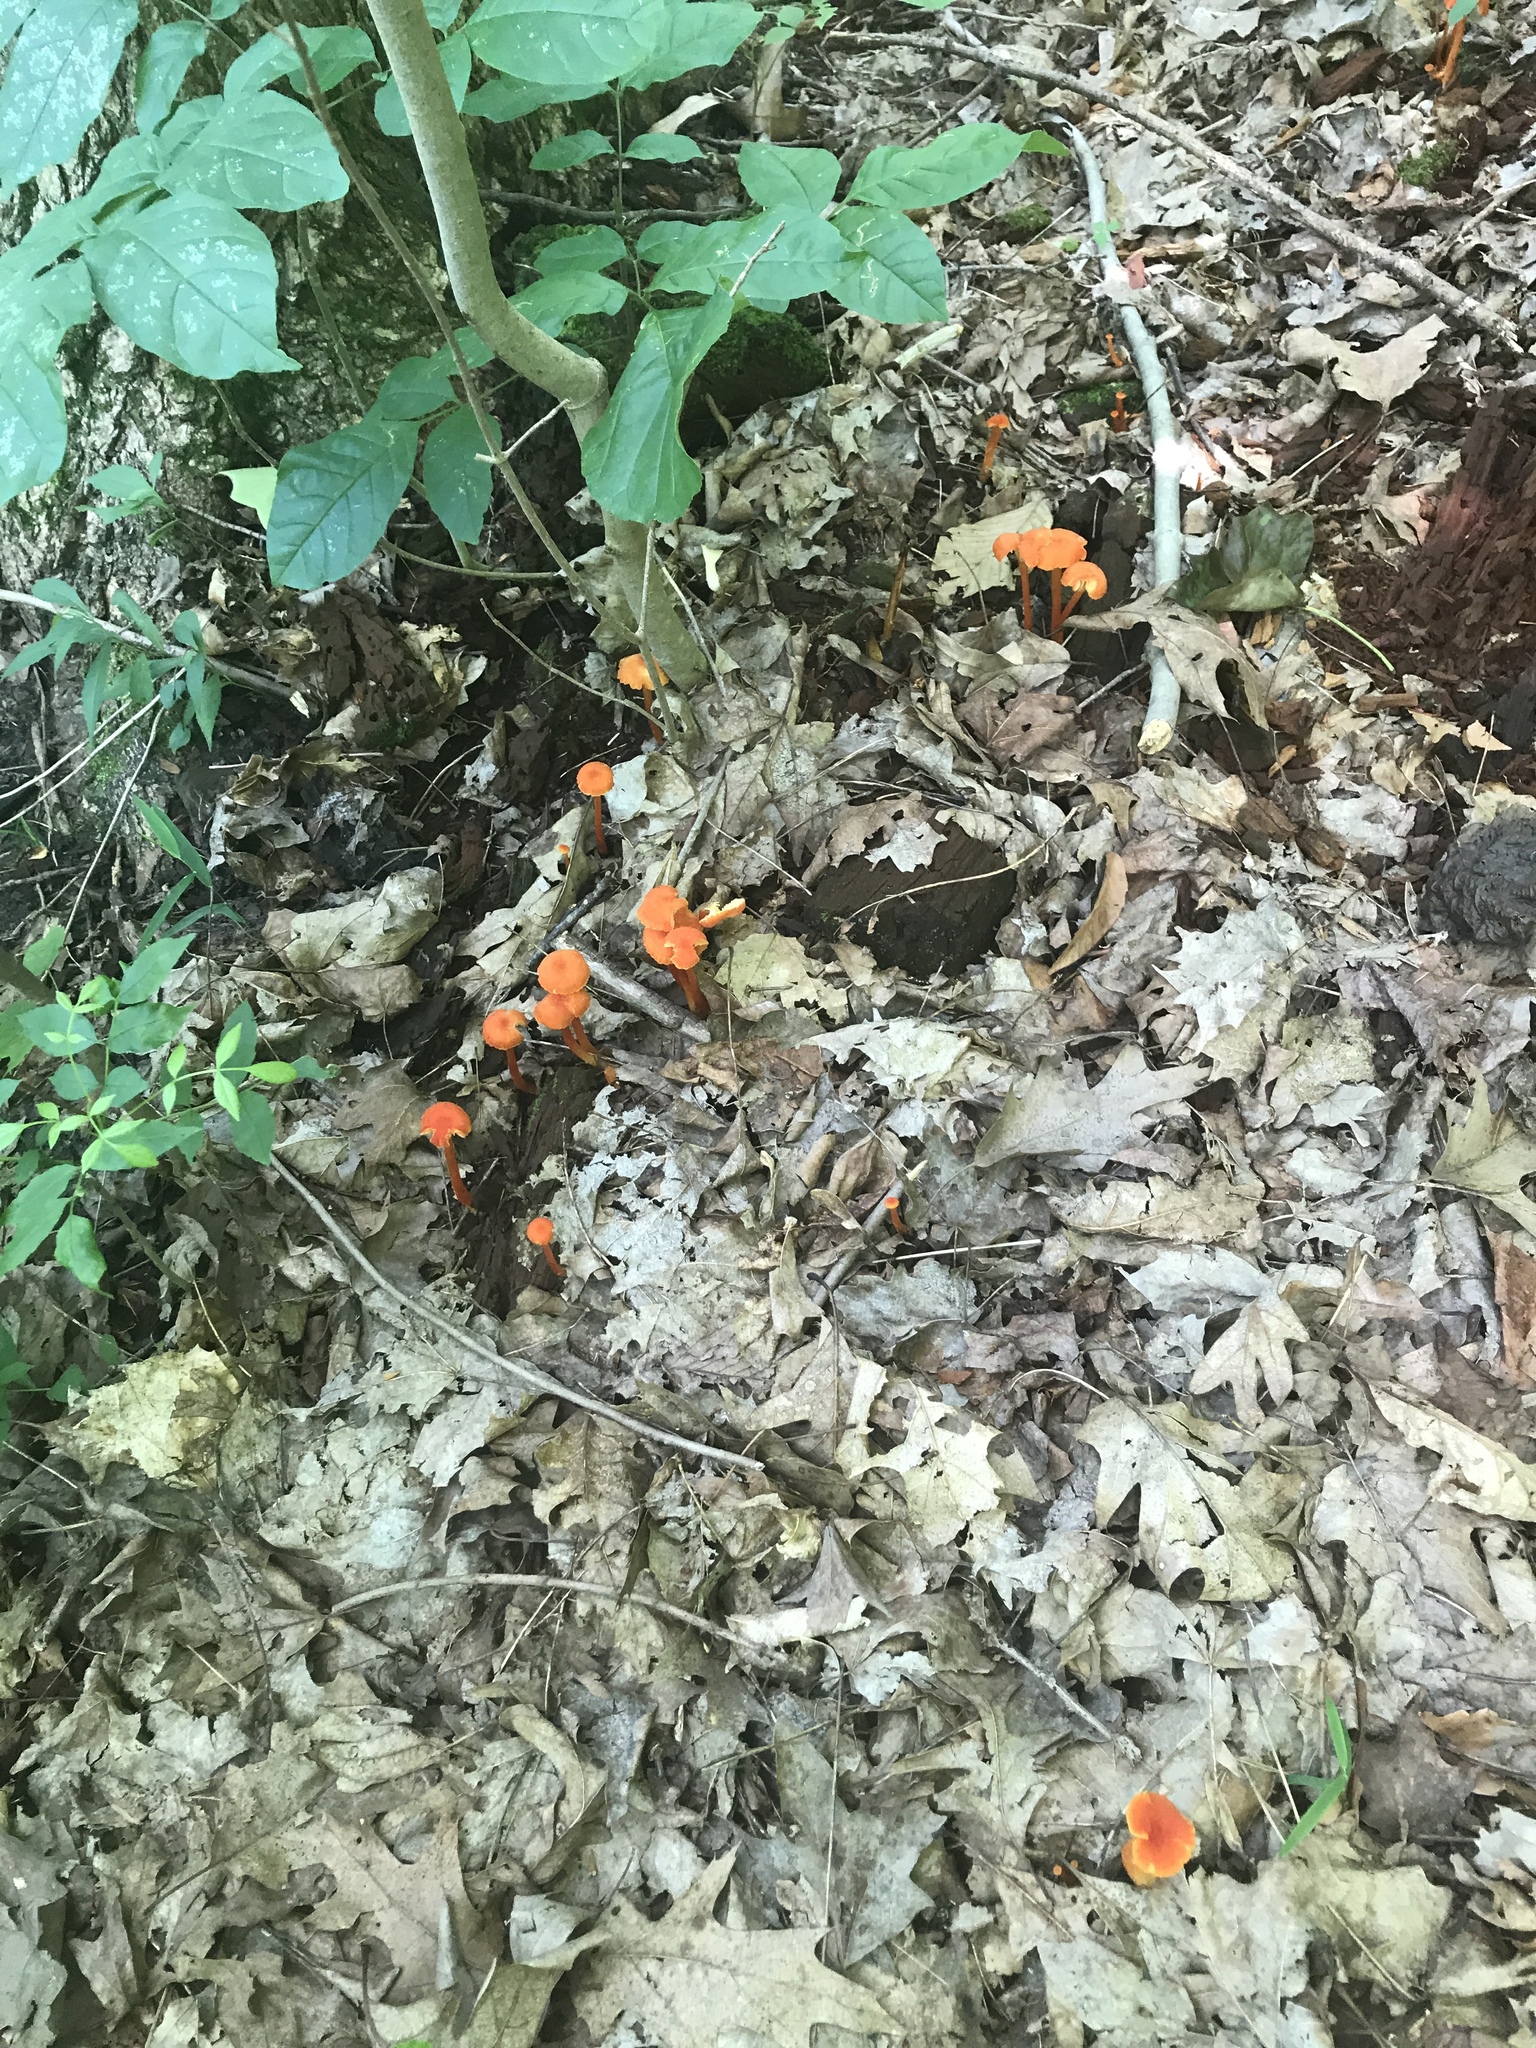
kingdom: Fungi
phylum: Basidiomycota
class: Agaricomycetes
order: Agaricales
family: Hygrophoraceae
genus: Hygrocybe
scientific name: Hygrocybe cantharellus
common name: Goblet waxcap
